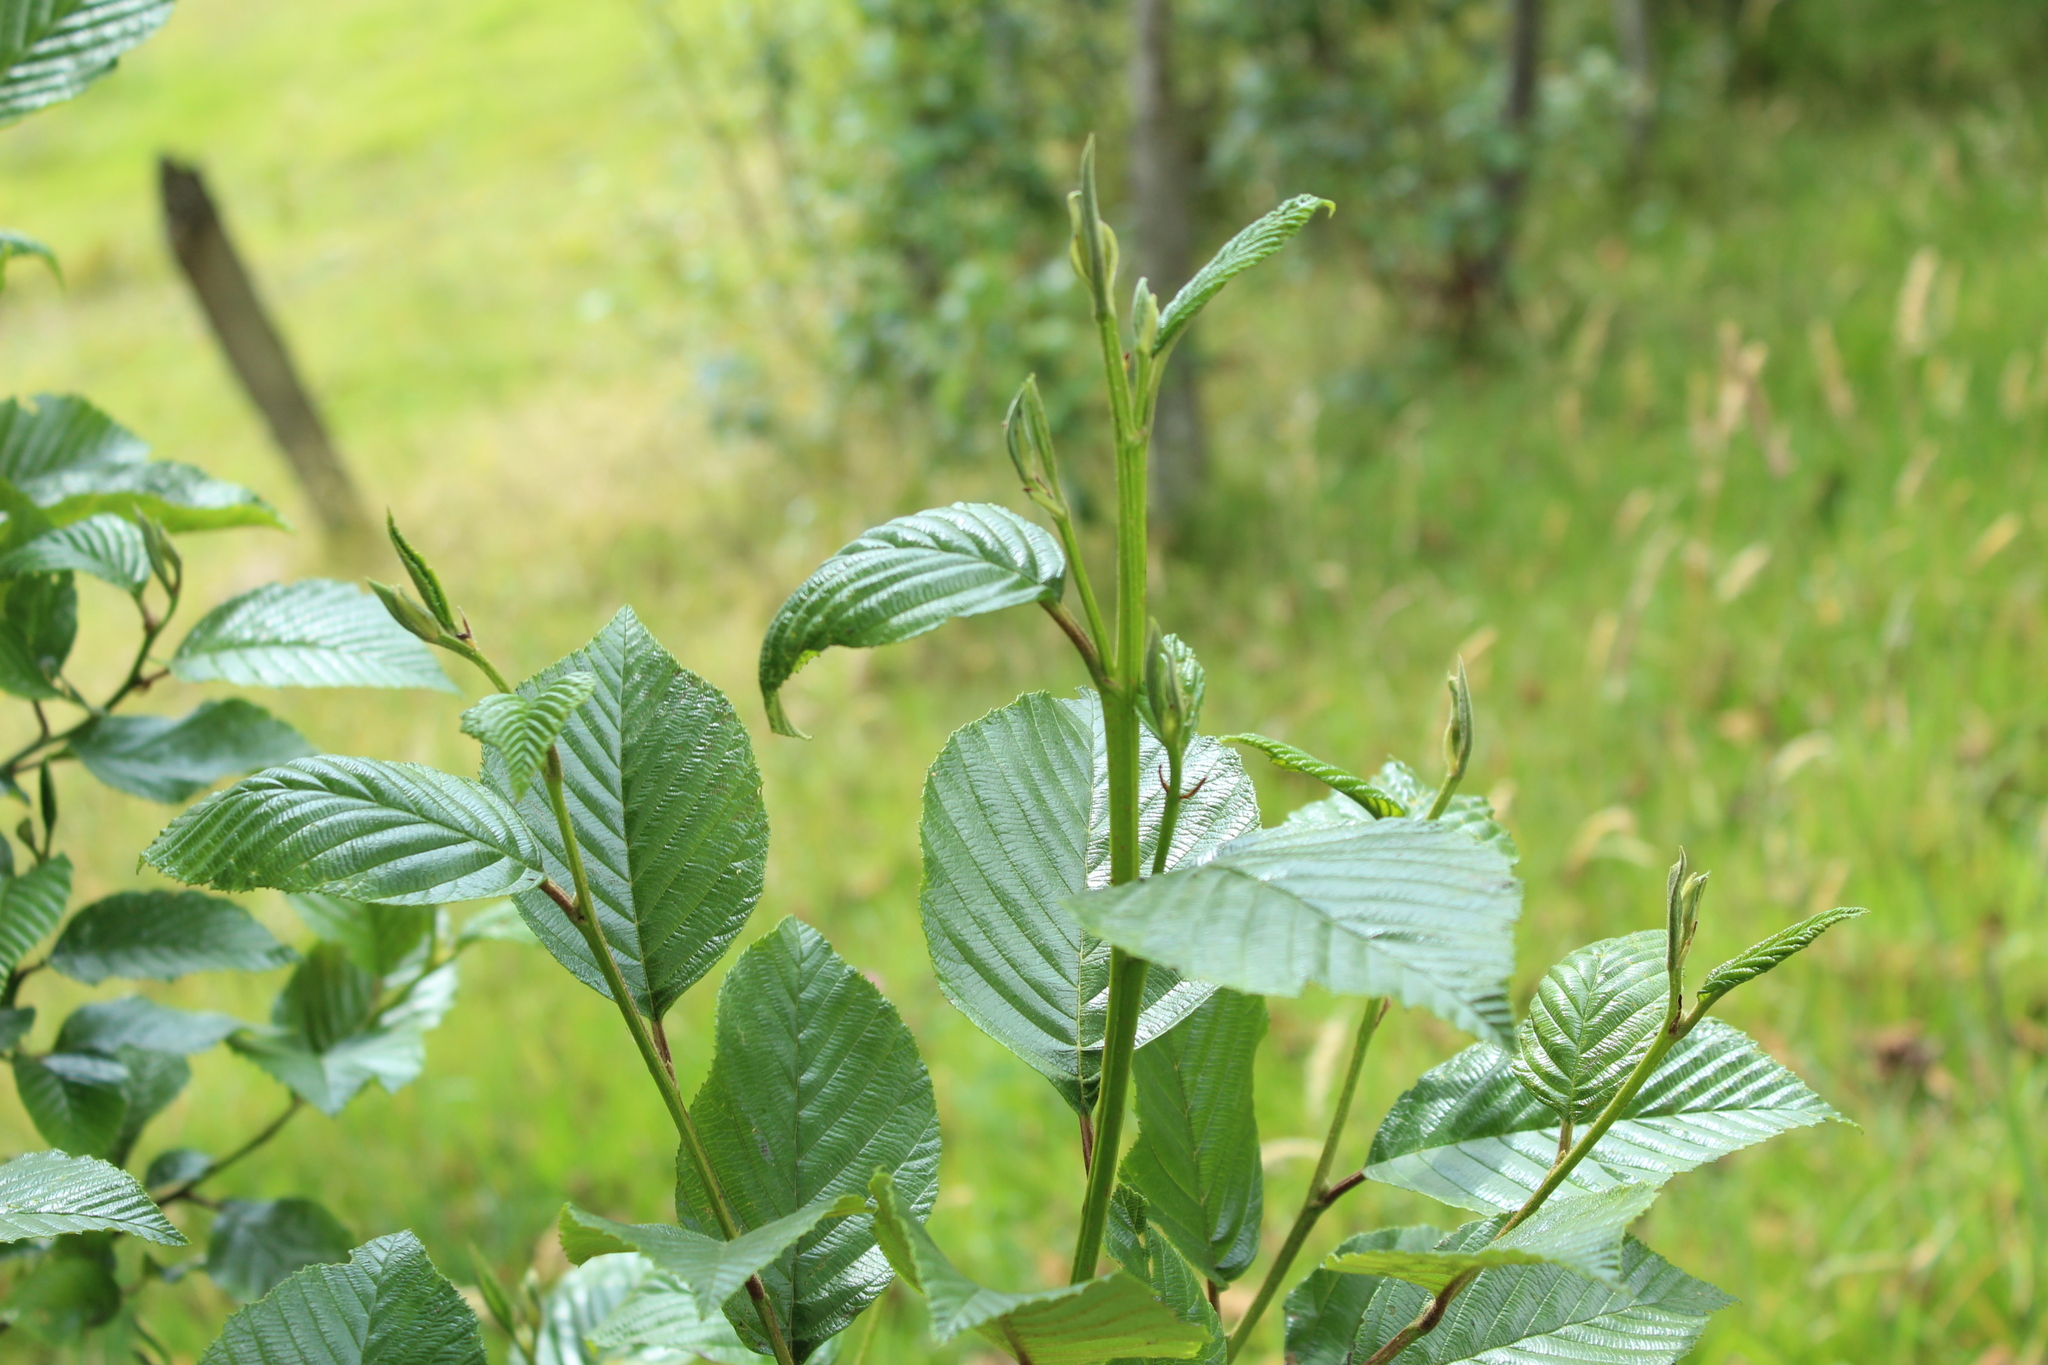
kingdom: Plantae
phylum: Tracheophyta
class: Magnoliopsida
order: Fagales
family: Betulaceae
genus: Alnus
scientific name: Alnus acuminata
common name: Alder
